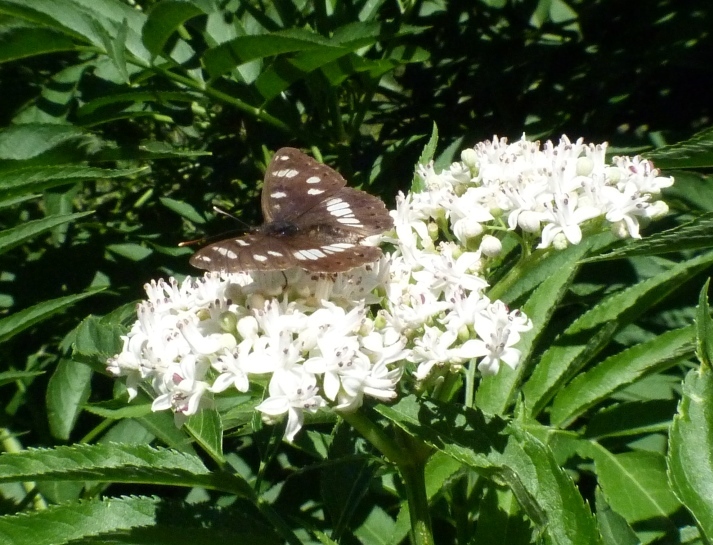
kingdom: Animalia
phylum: Arthropoda
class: Insecta
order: Lepidoptera
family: Nymphalidae
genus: Limenitis
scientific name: Limenitis reducta
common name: Southern white admiral
